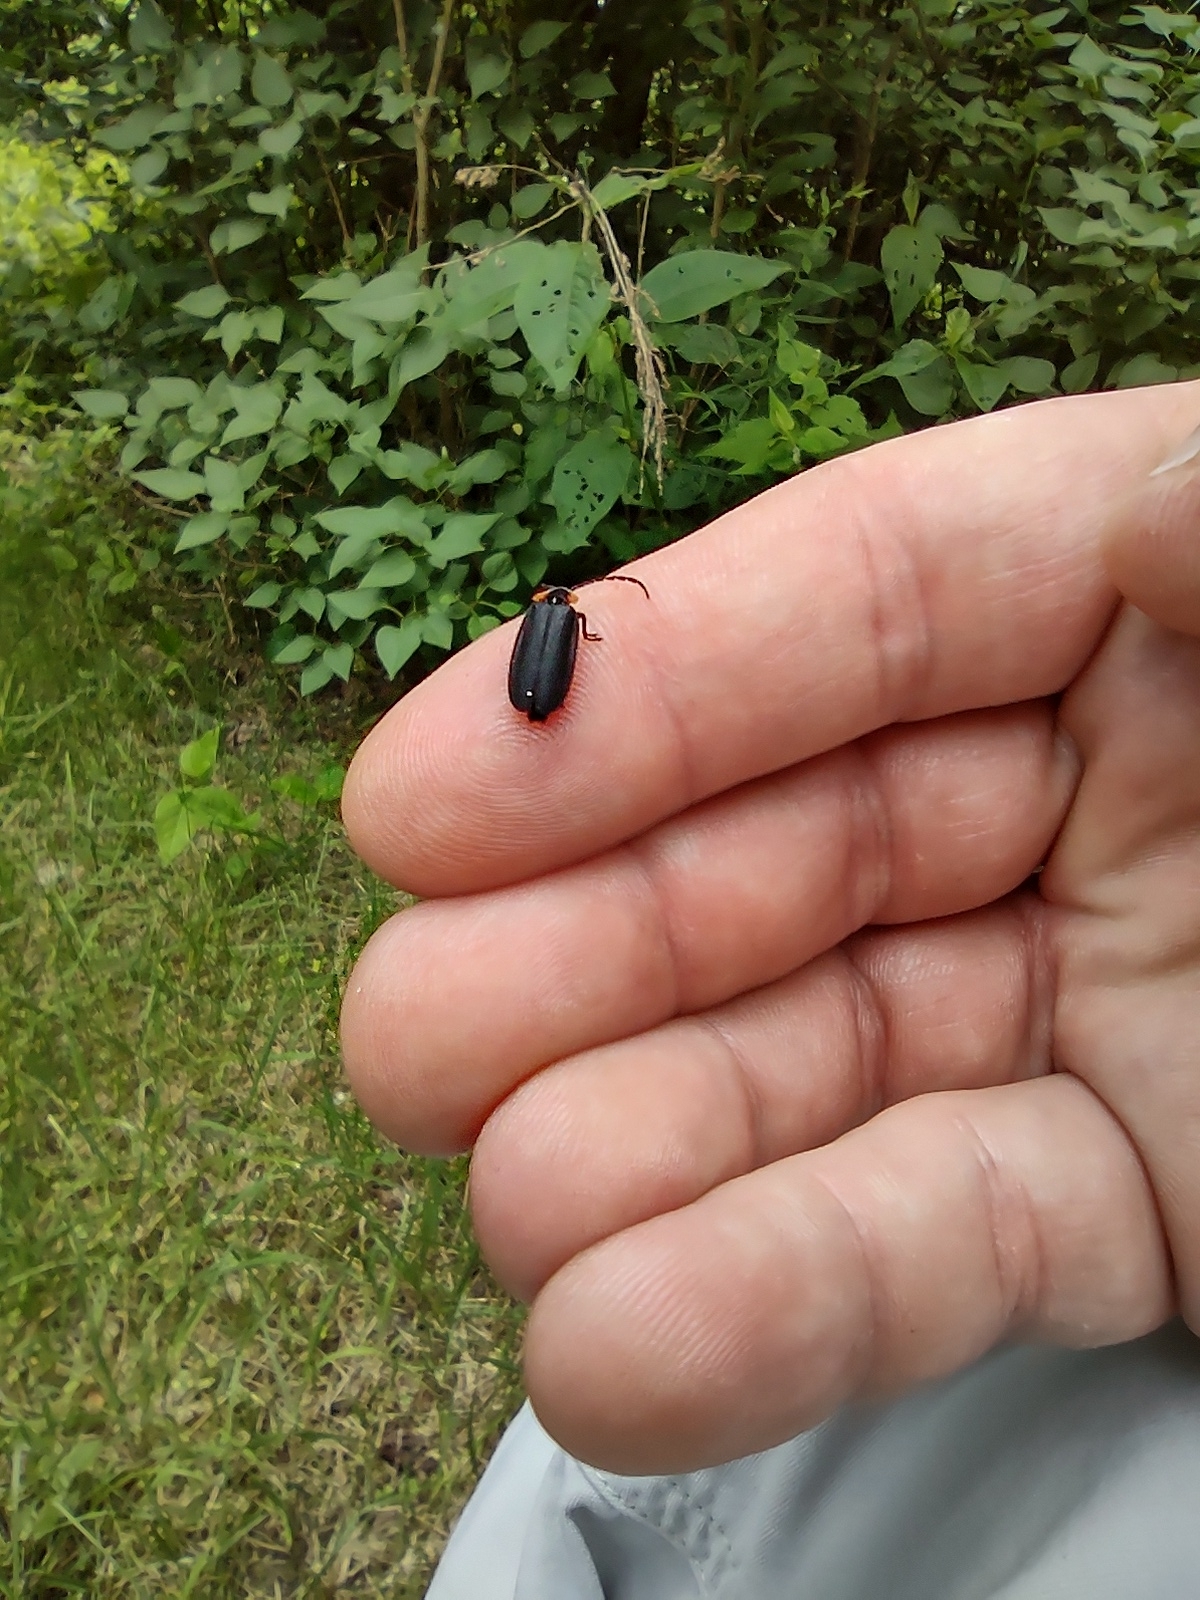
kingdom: Animalia
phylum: Arthropoda
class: Insecta
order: Coleoptera
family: Lampyridae
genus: Lucidota
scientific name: Lucidota atra
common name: Black firefly
